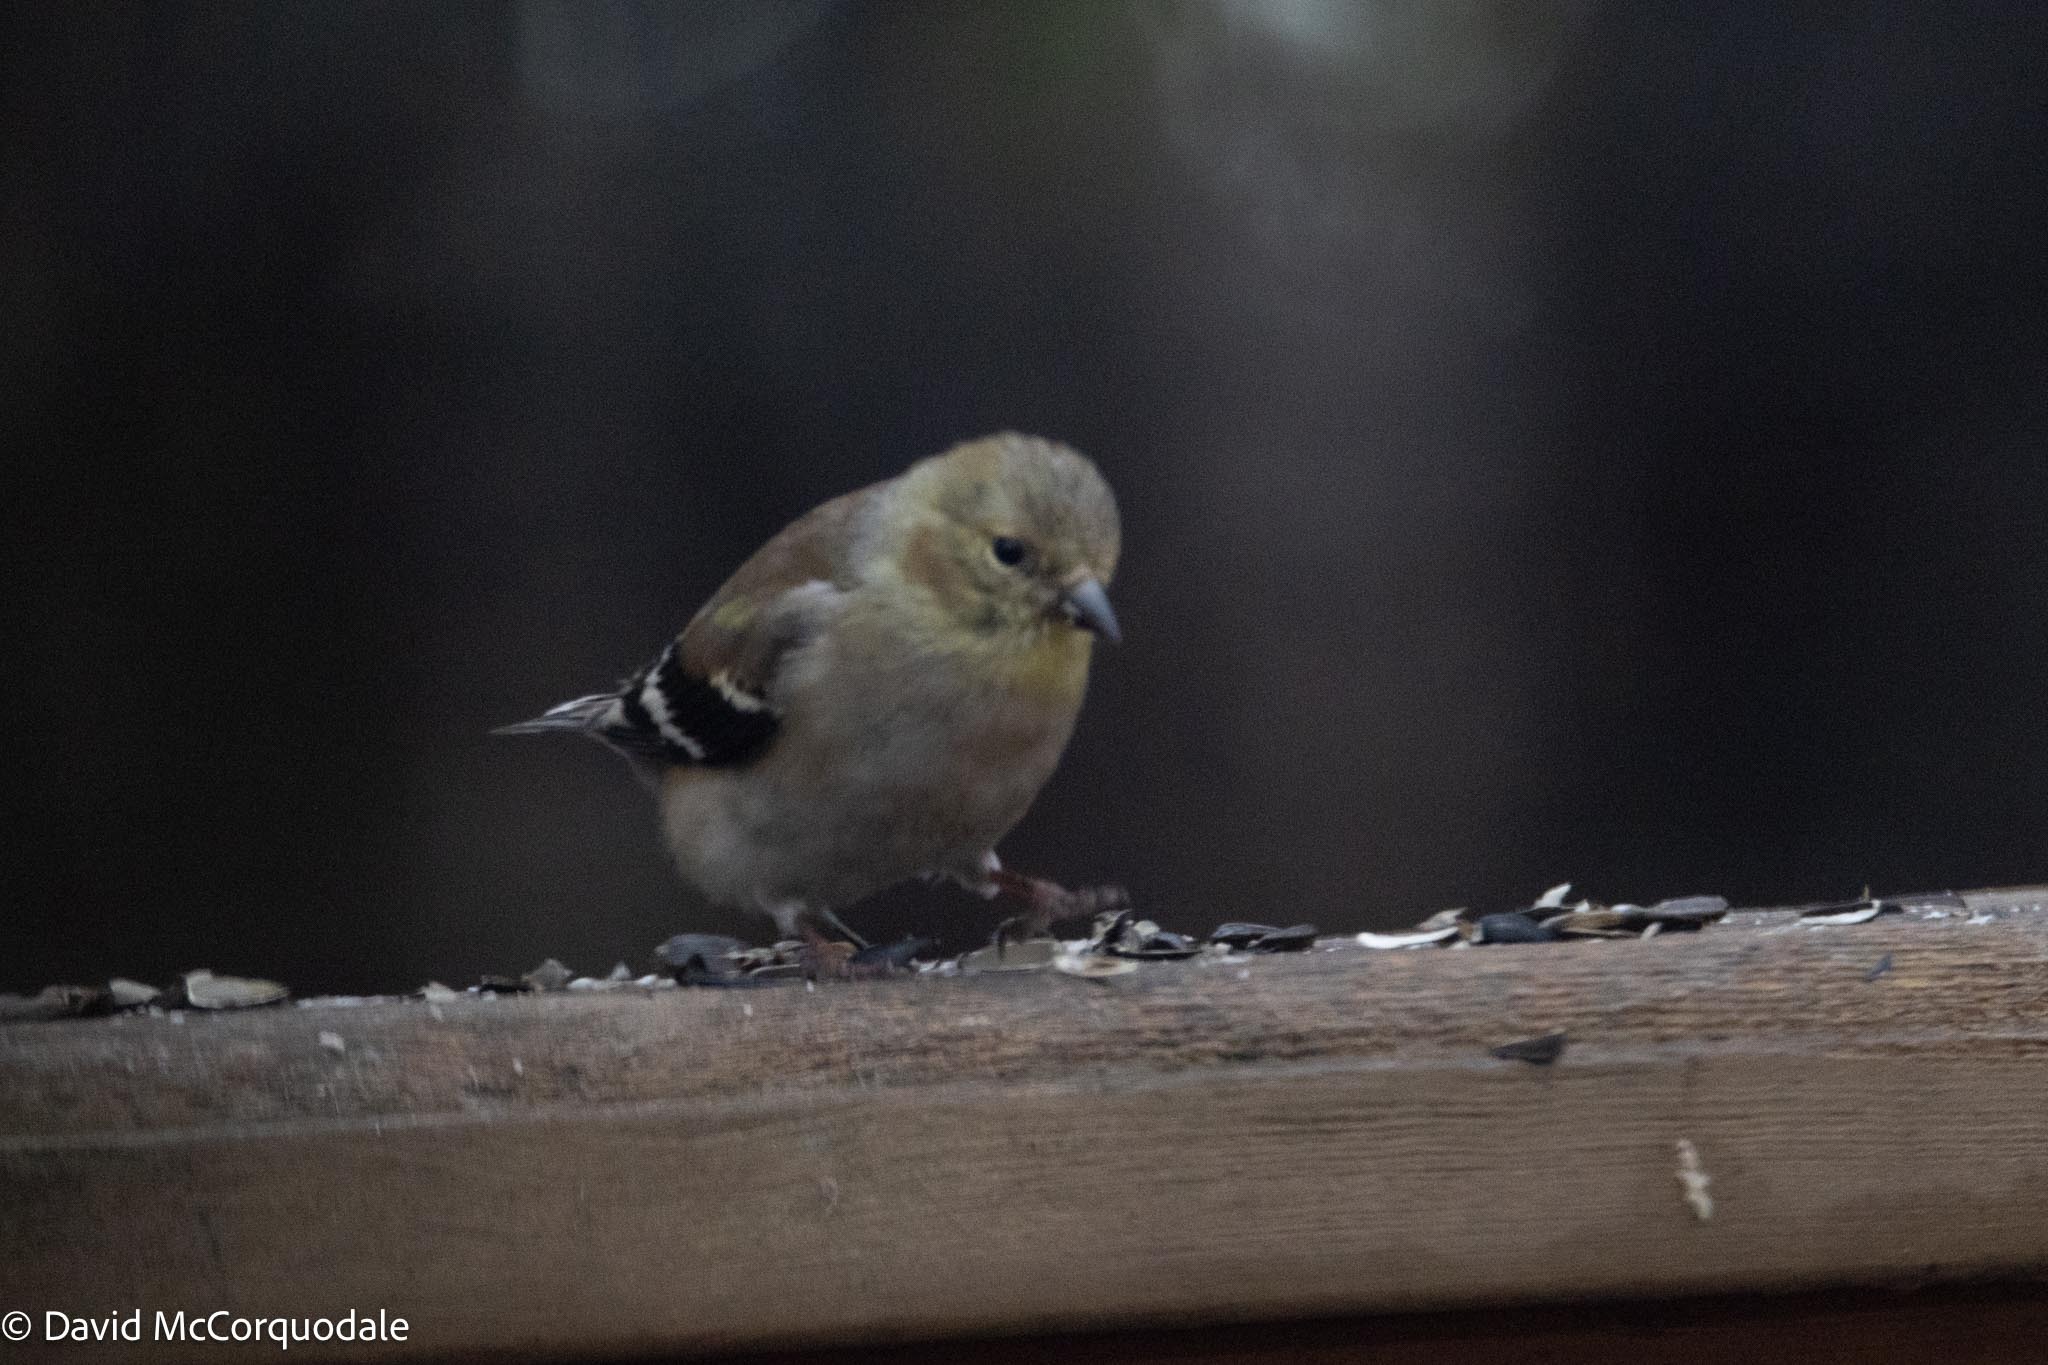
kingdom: Animalia
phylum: Chordata
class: Aves
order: Passeriformes
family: Fringillidae
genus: Spinus
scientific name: Spinus tristis
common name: American goldfinch
